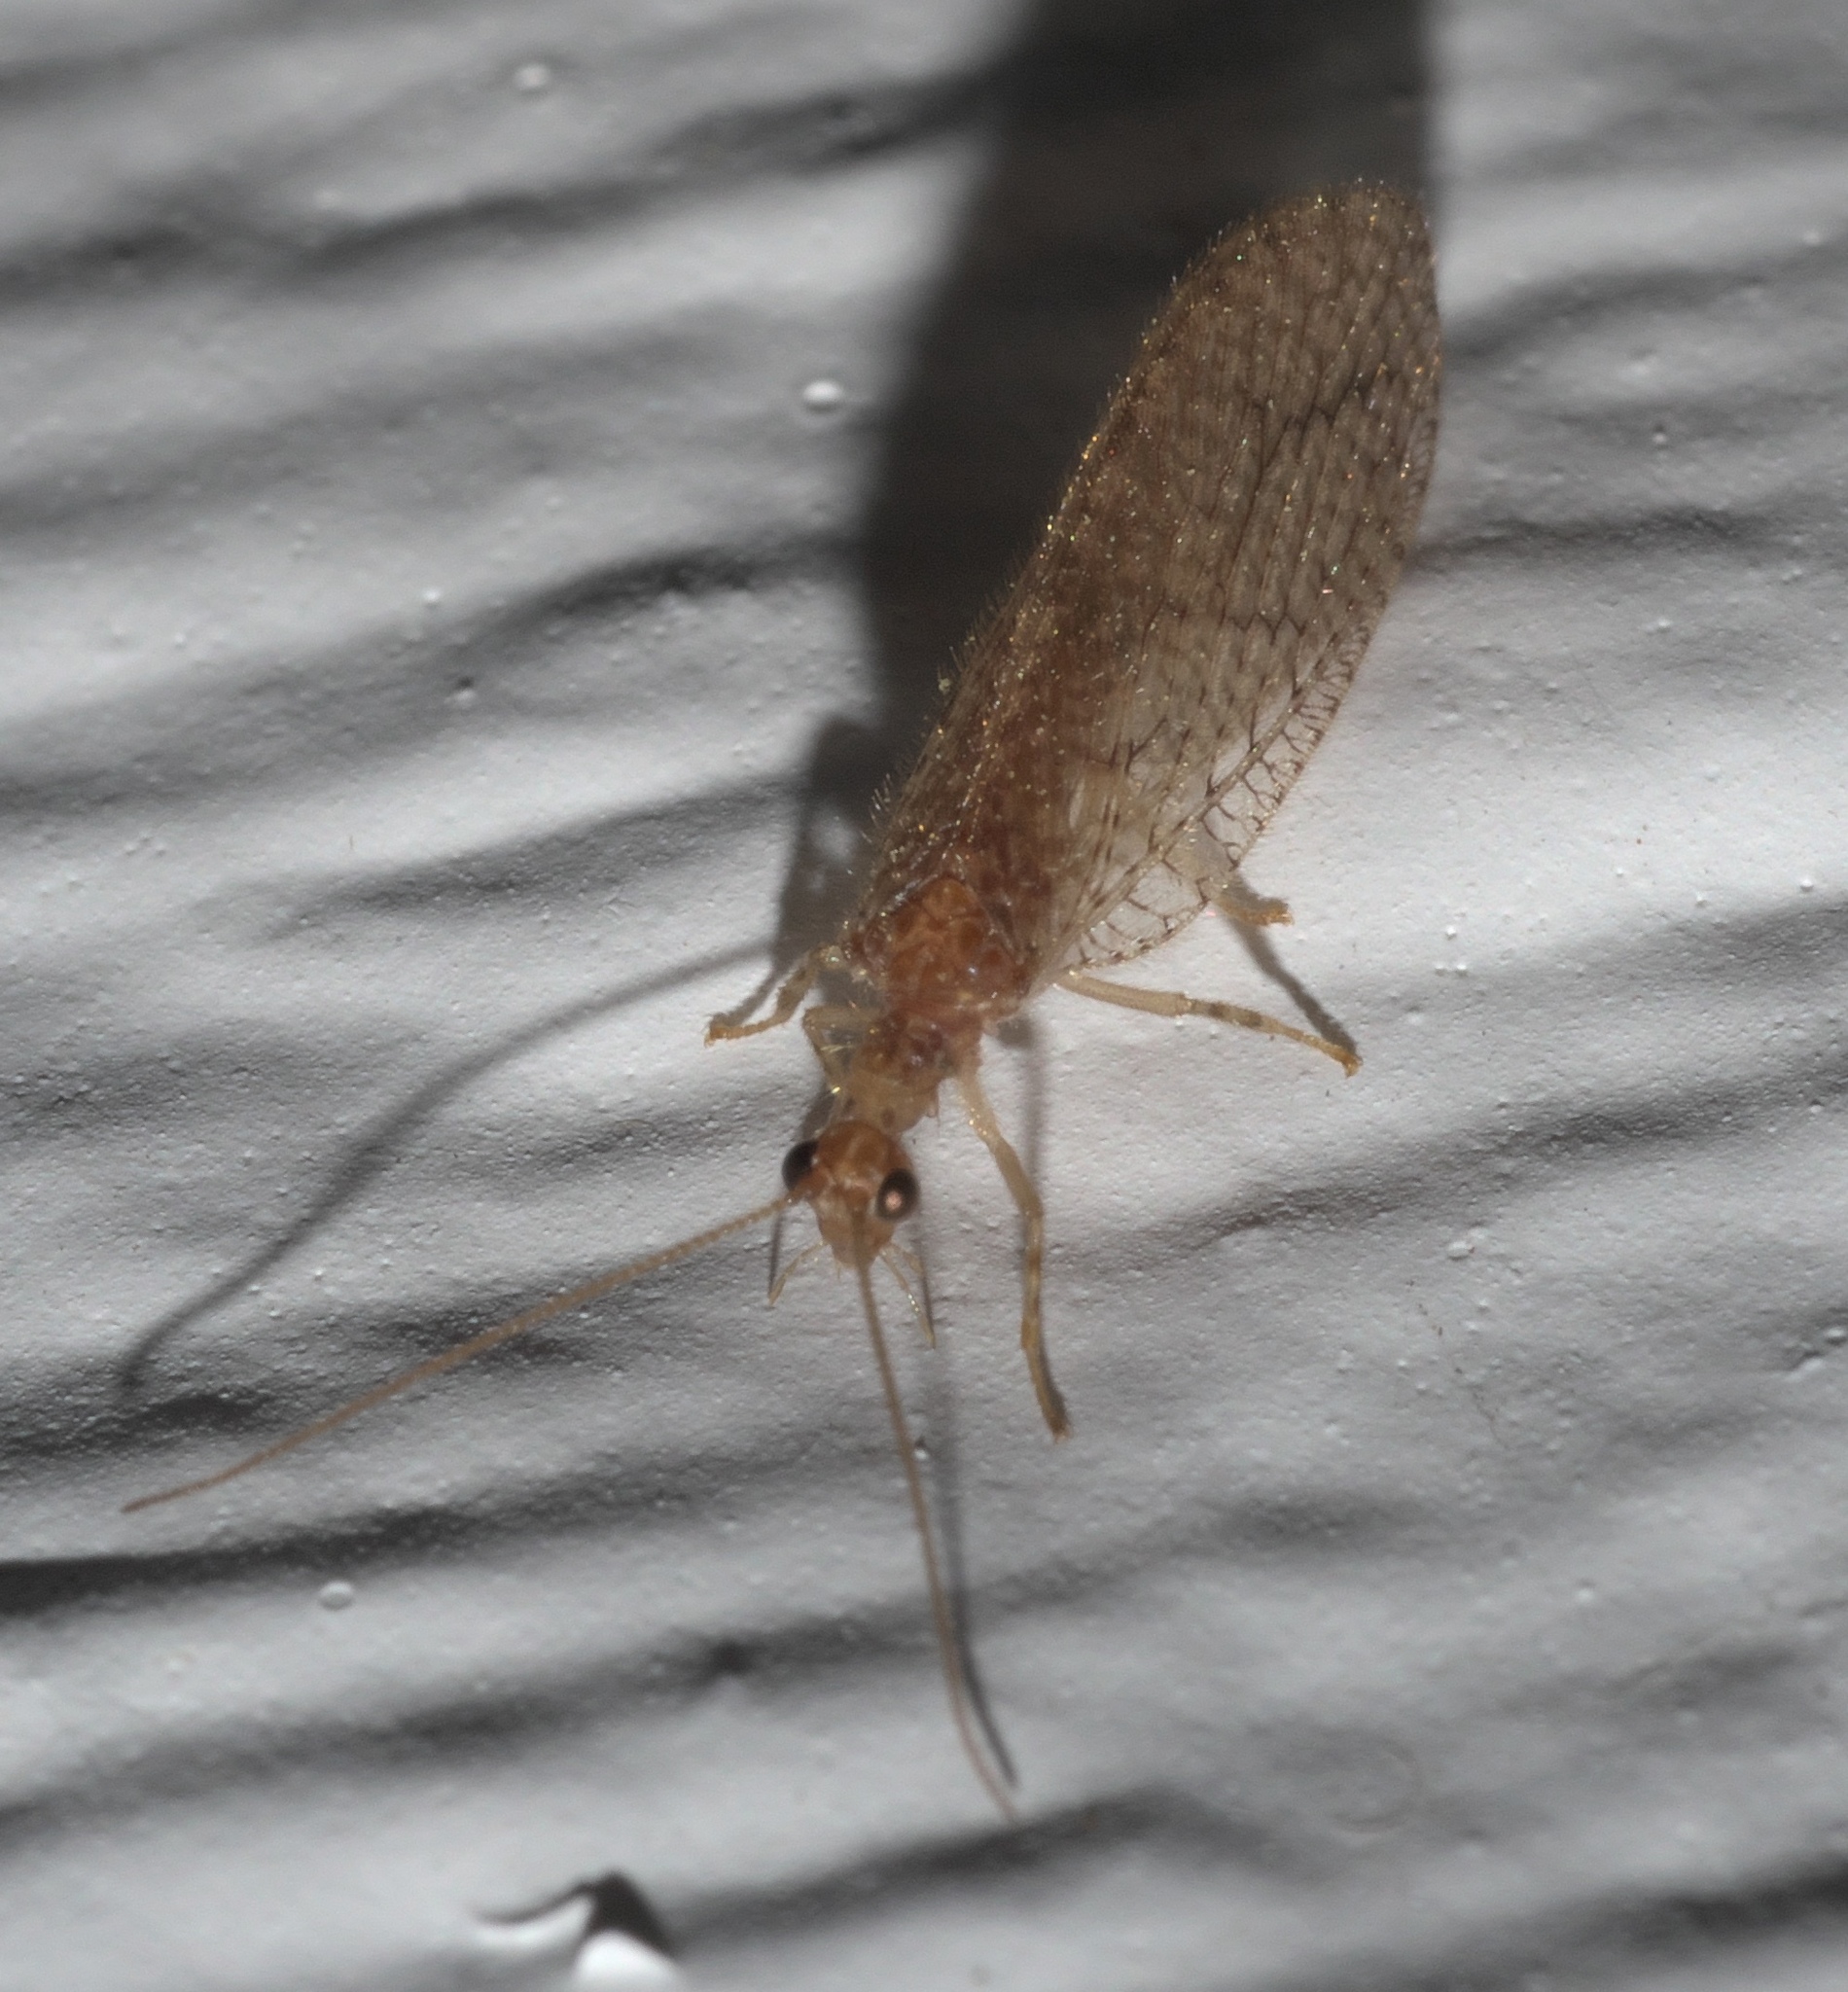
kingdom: Animalia
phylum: Arthropoda
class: Insecta
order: Neuroptera
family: Hemerobiidae
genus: Micromus
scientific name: Micromus posticus
